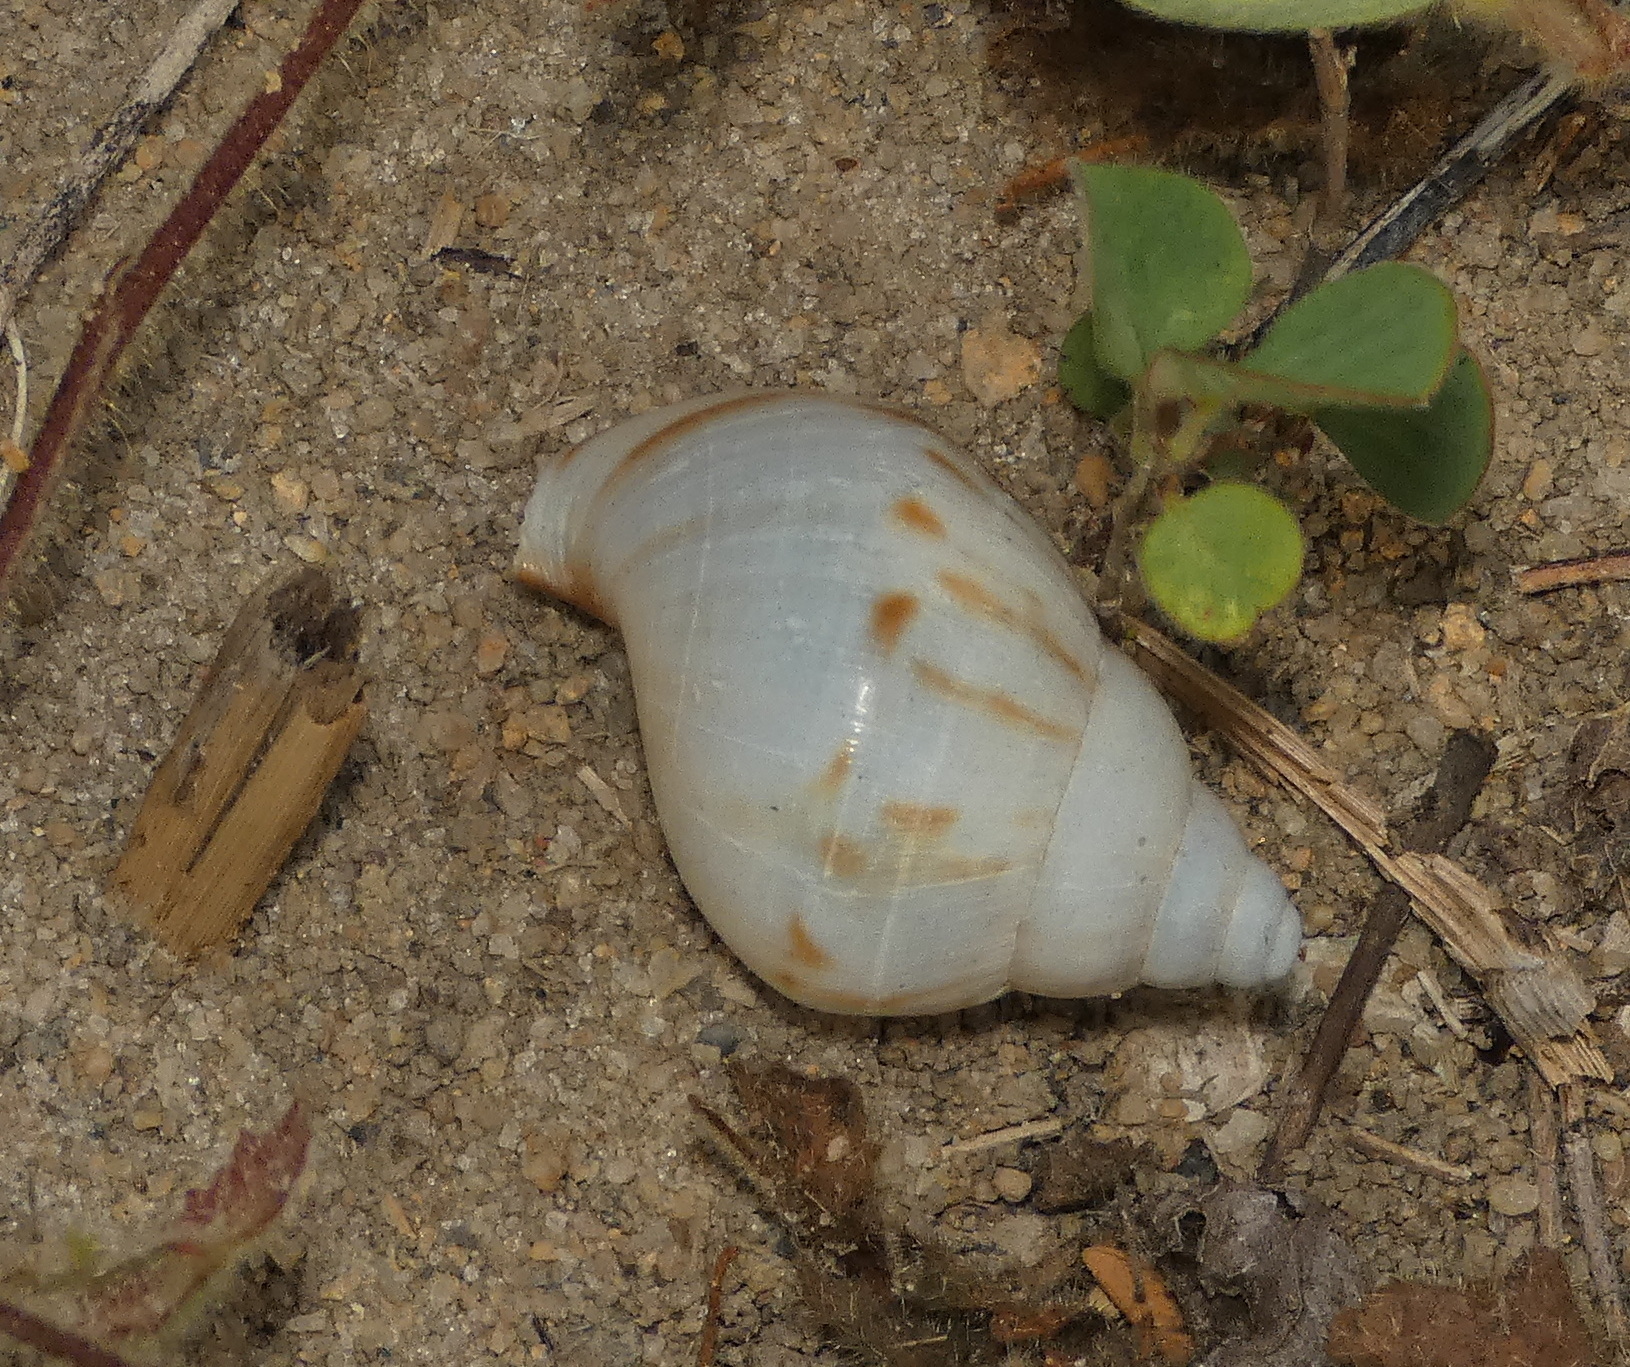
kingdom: Animalia
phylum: Mollusca
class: Gastropoda
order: Stylommatophora
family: Achatinidae
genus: Lissachatina
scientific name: Lissachatina fulica
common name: Giant african snail
